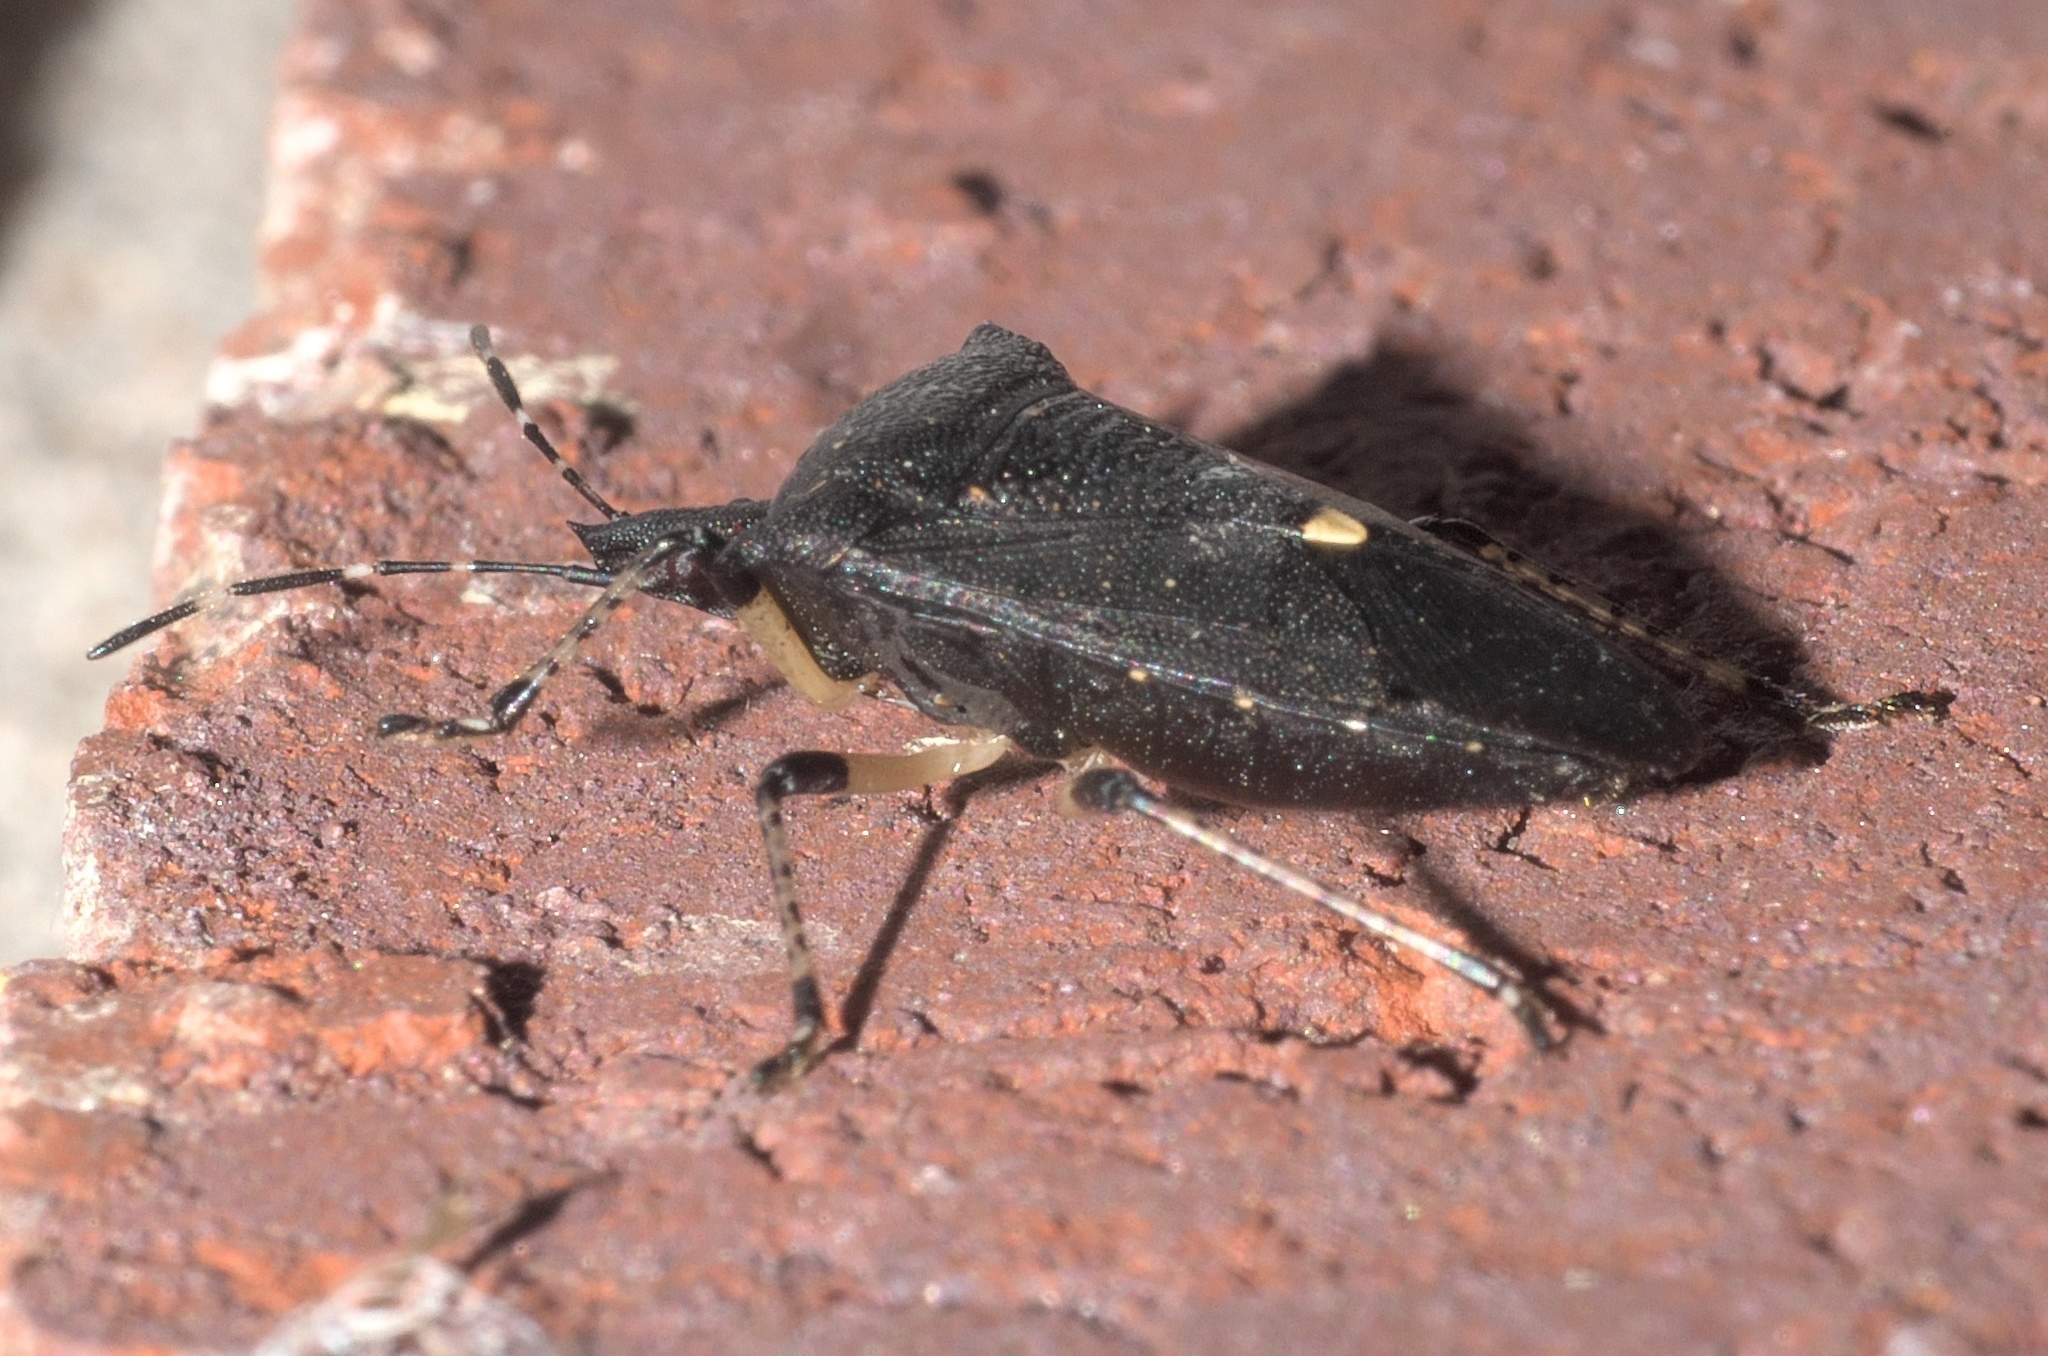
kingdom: Animalia
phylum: Arthropoda
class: Insecta
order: Hemiptera
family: Pentatomidae
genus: Proxys
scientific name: Proxys punctulatus
